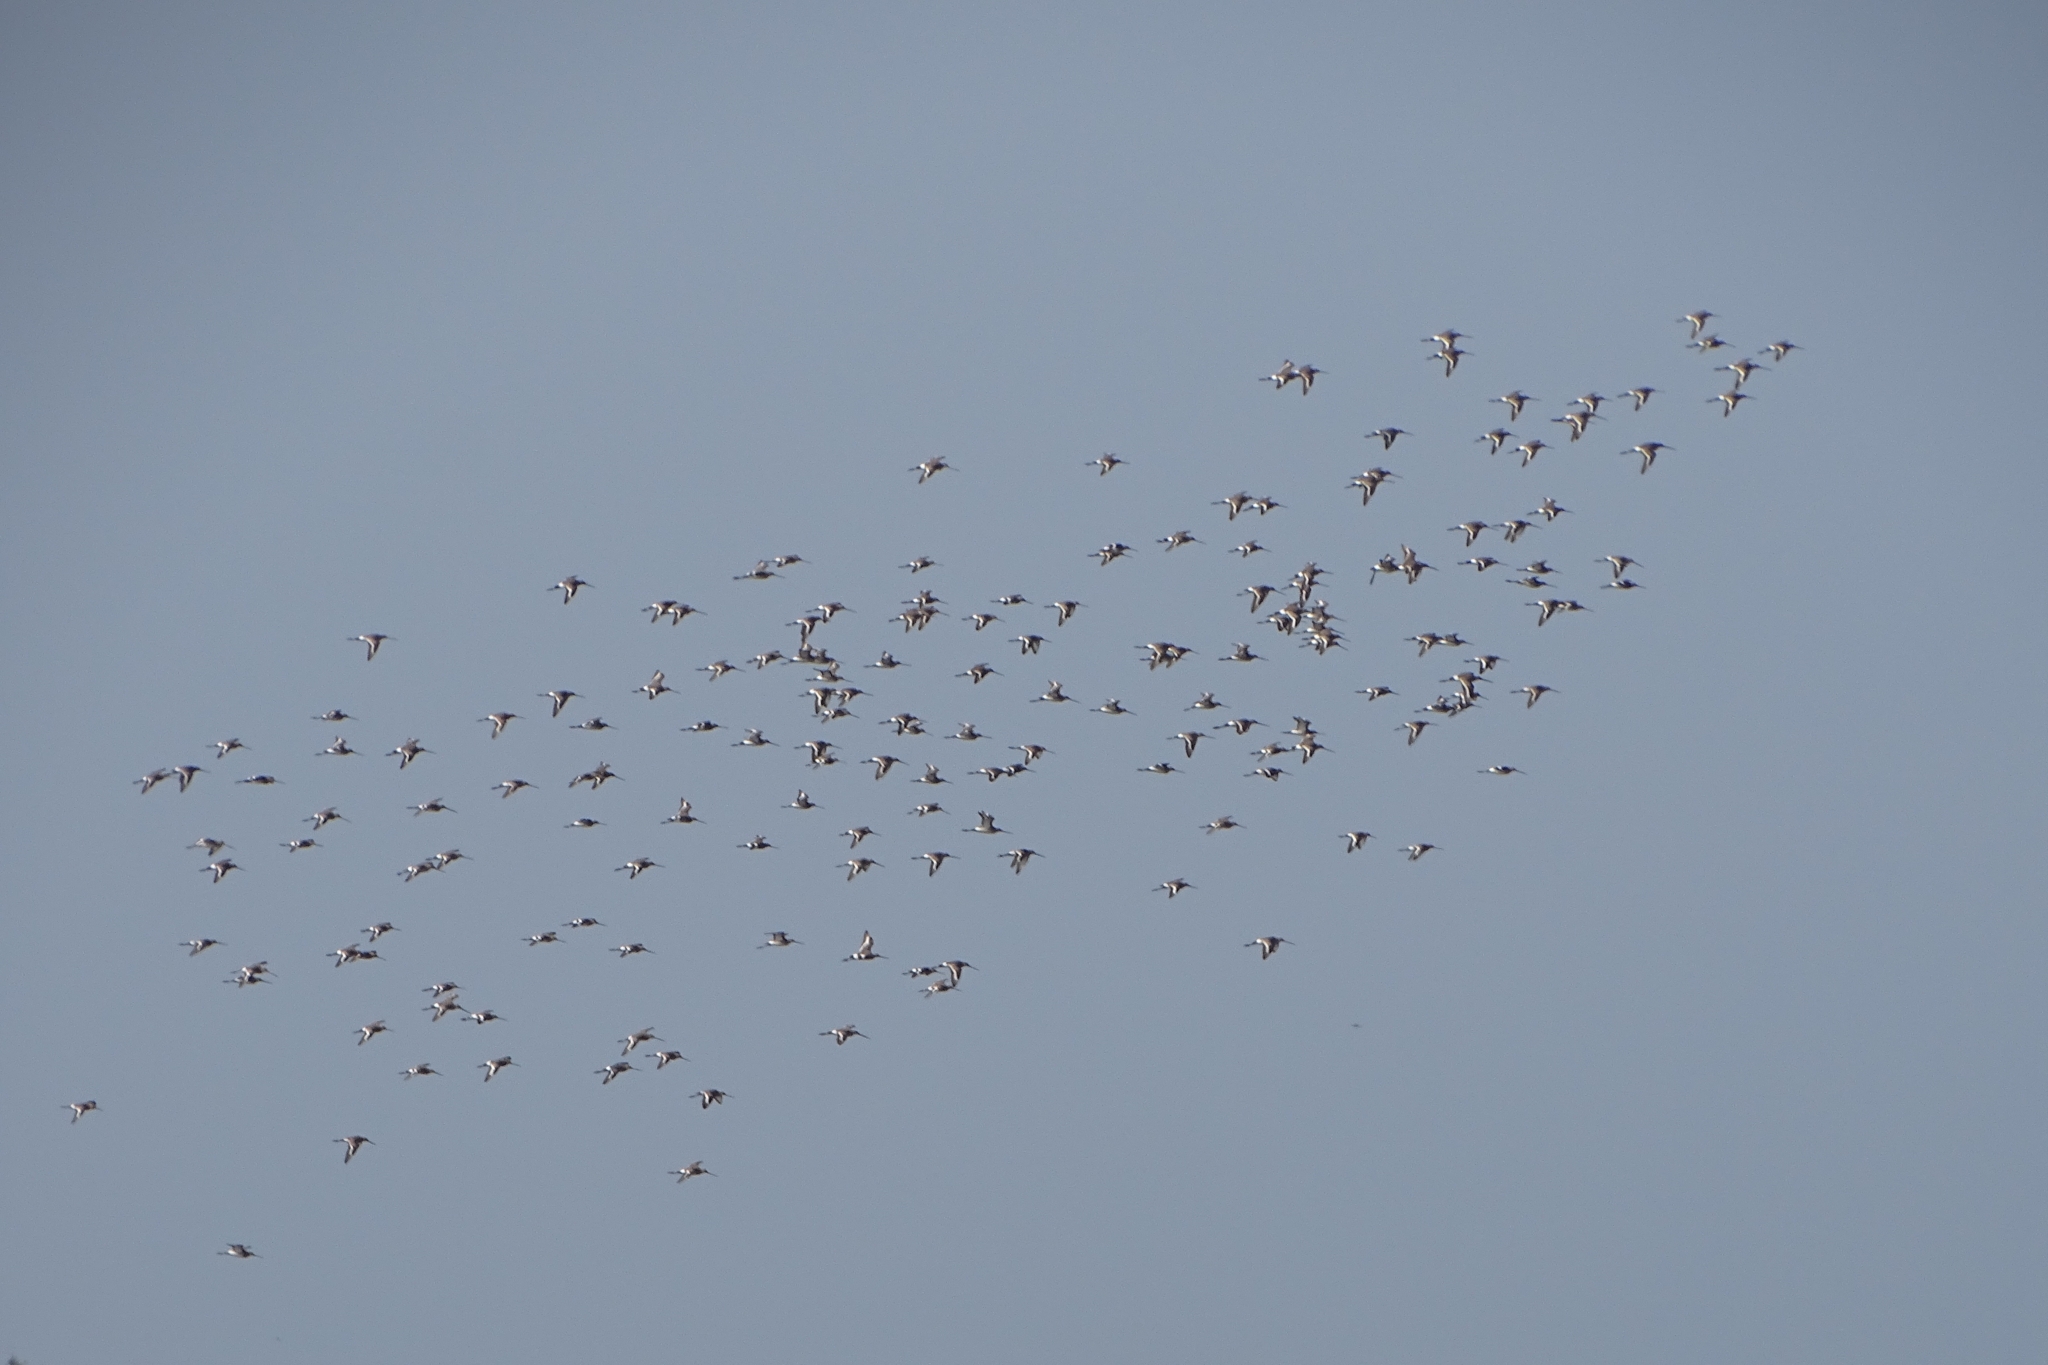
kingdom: Animalia
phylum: Chordata
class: Aves
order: Charadriiformes
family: Scolopacidae
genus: Limosa
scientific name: Limosa limosa
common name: Black-tailed godwit
